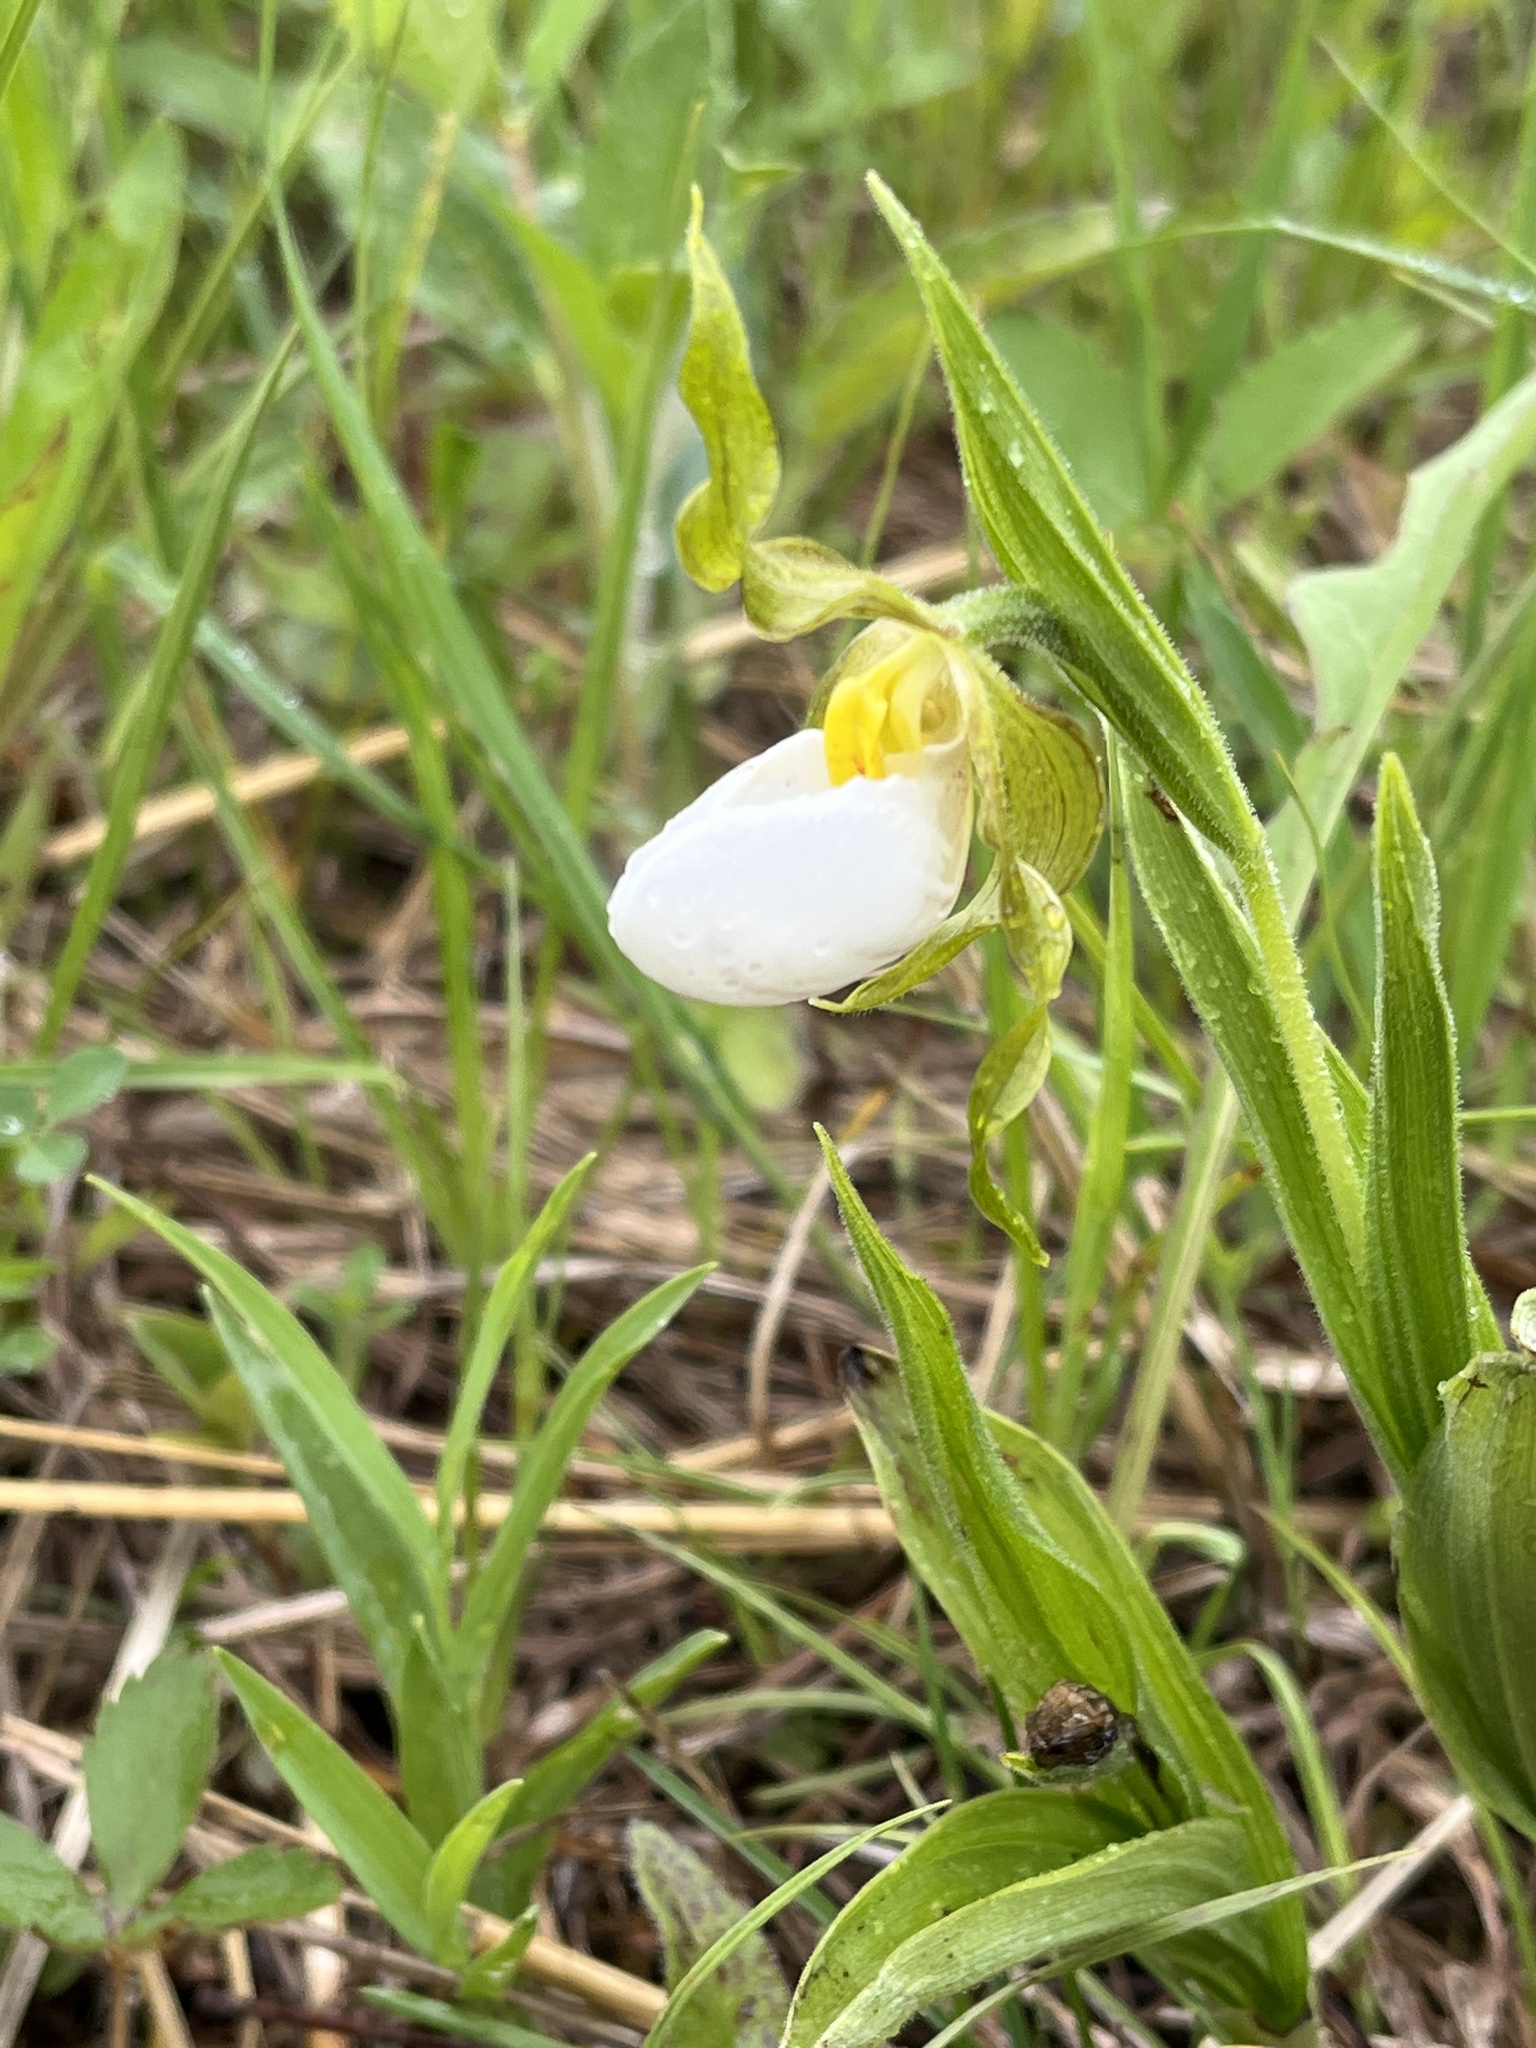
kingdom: Plantae
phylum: Tracheophyta
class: Liliopsida
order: Asparagales
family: Orchidaceae
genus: Cypripedium
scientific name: Cypripedium candidum
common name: White lady's-slipper
